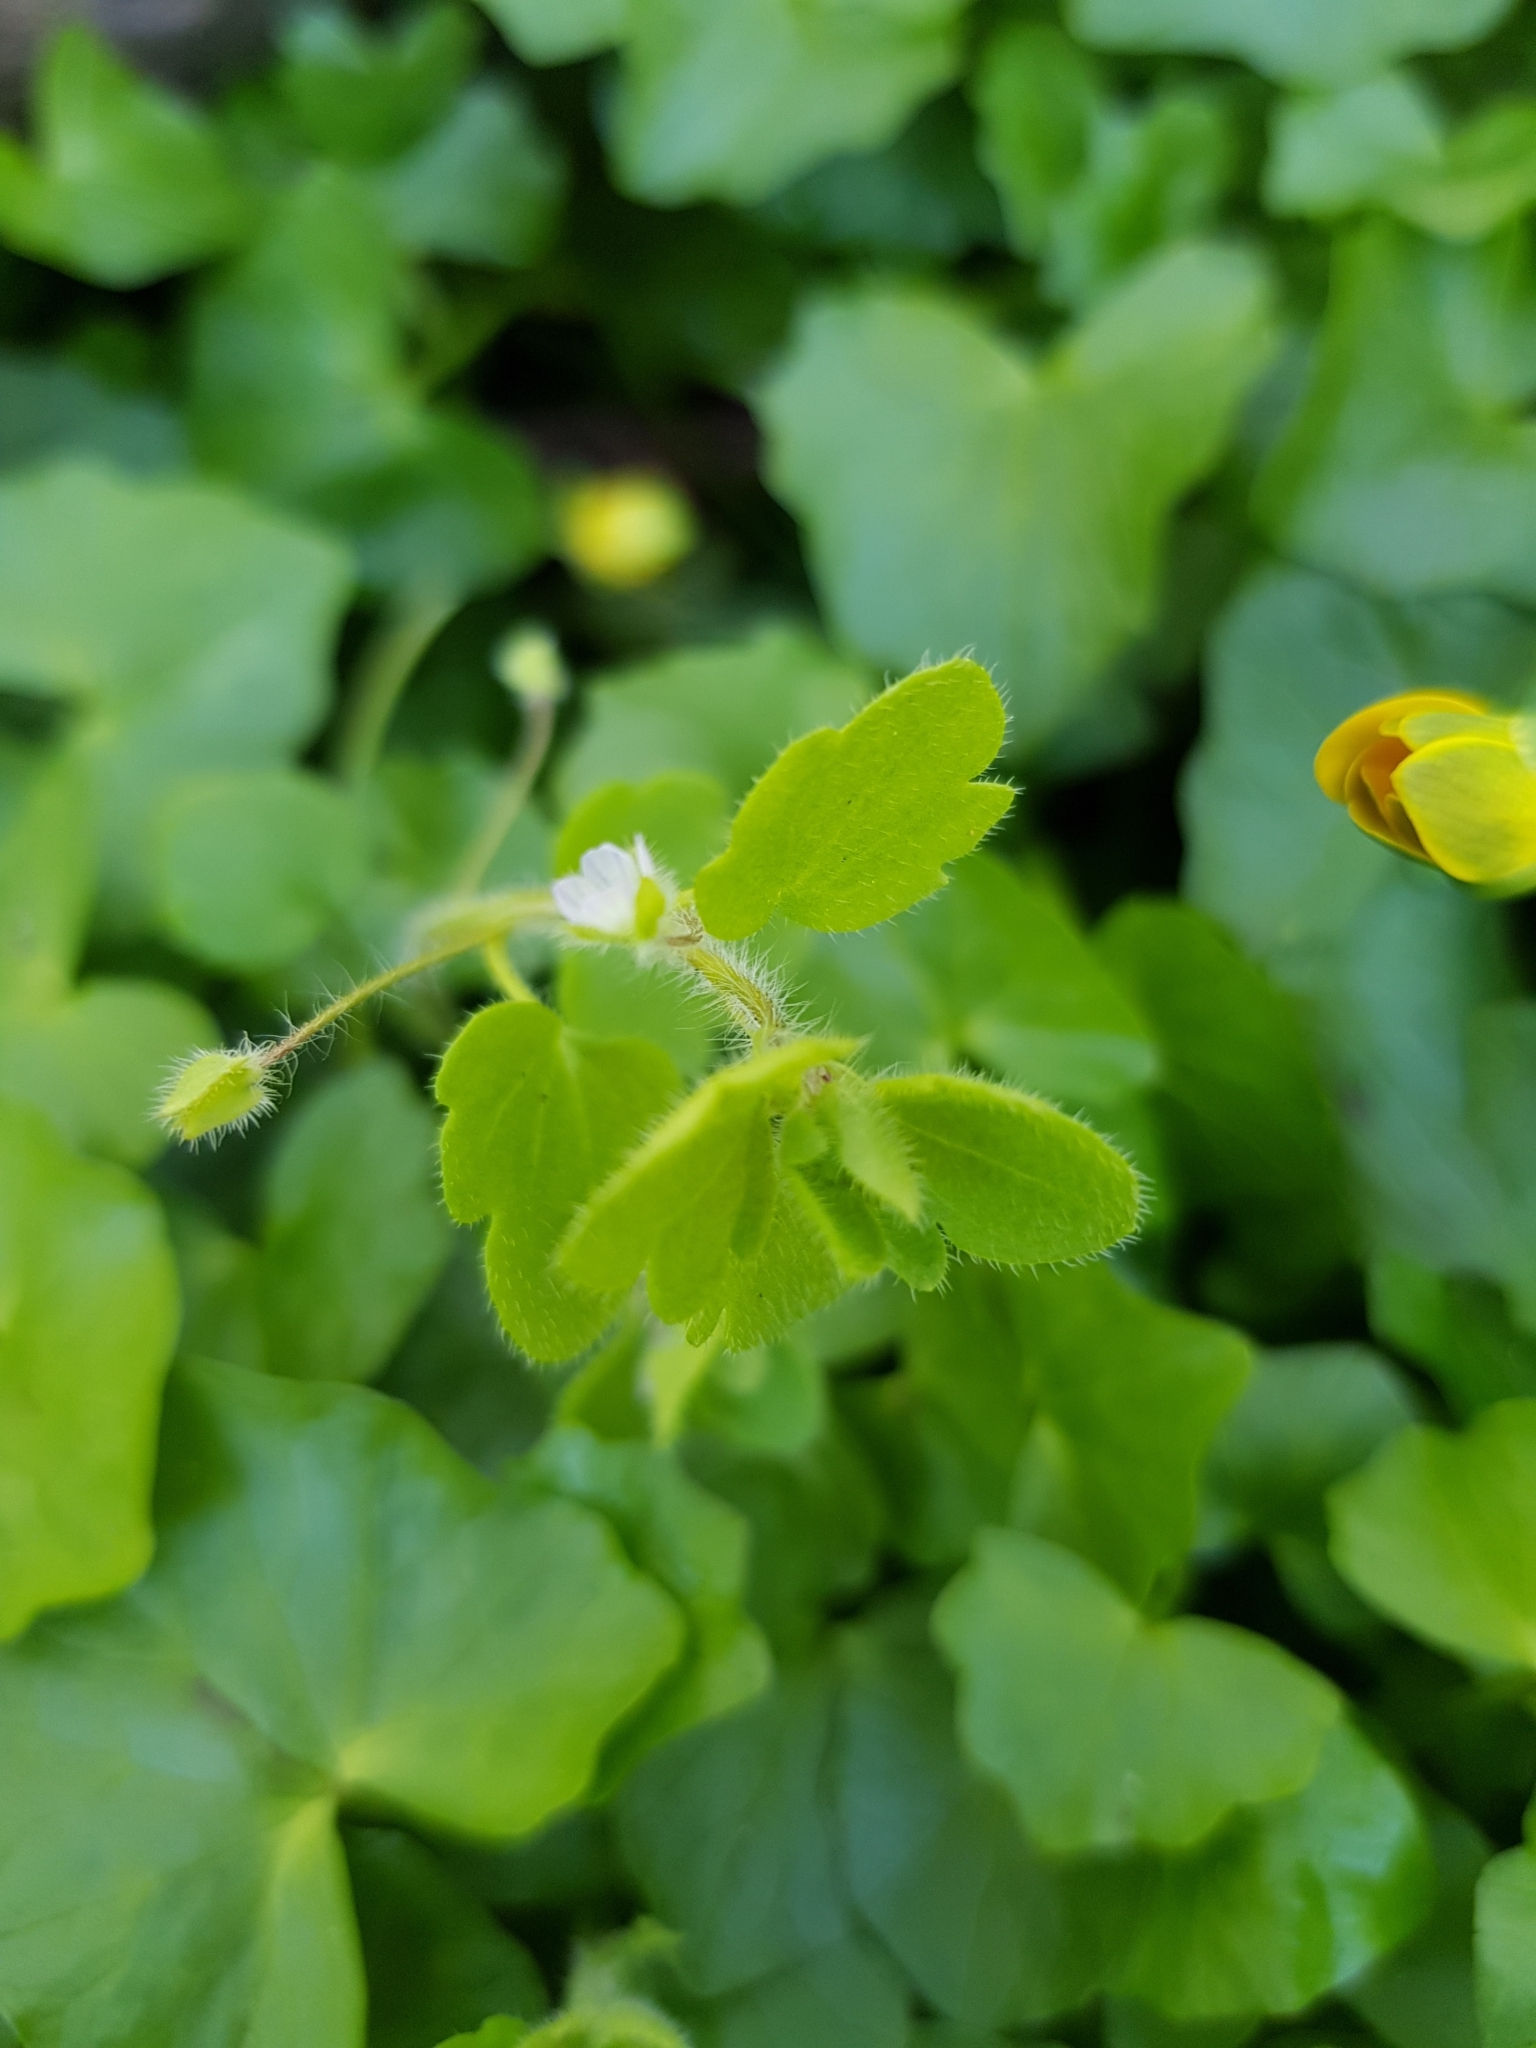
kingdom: Plantae
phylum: Tracheophyta
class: Magnoliopsida
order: Lamiales
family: Plantaginaceae
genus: Veronica
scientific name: Veronica sublobata
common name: False ivy-leaved speedwell
